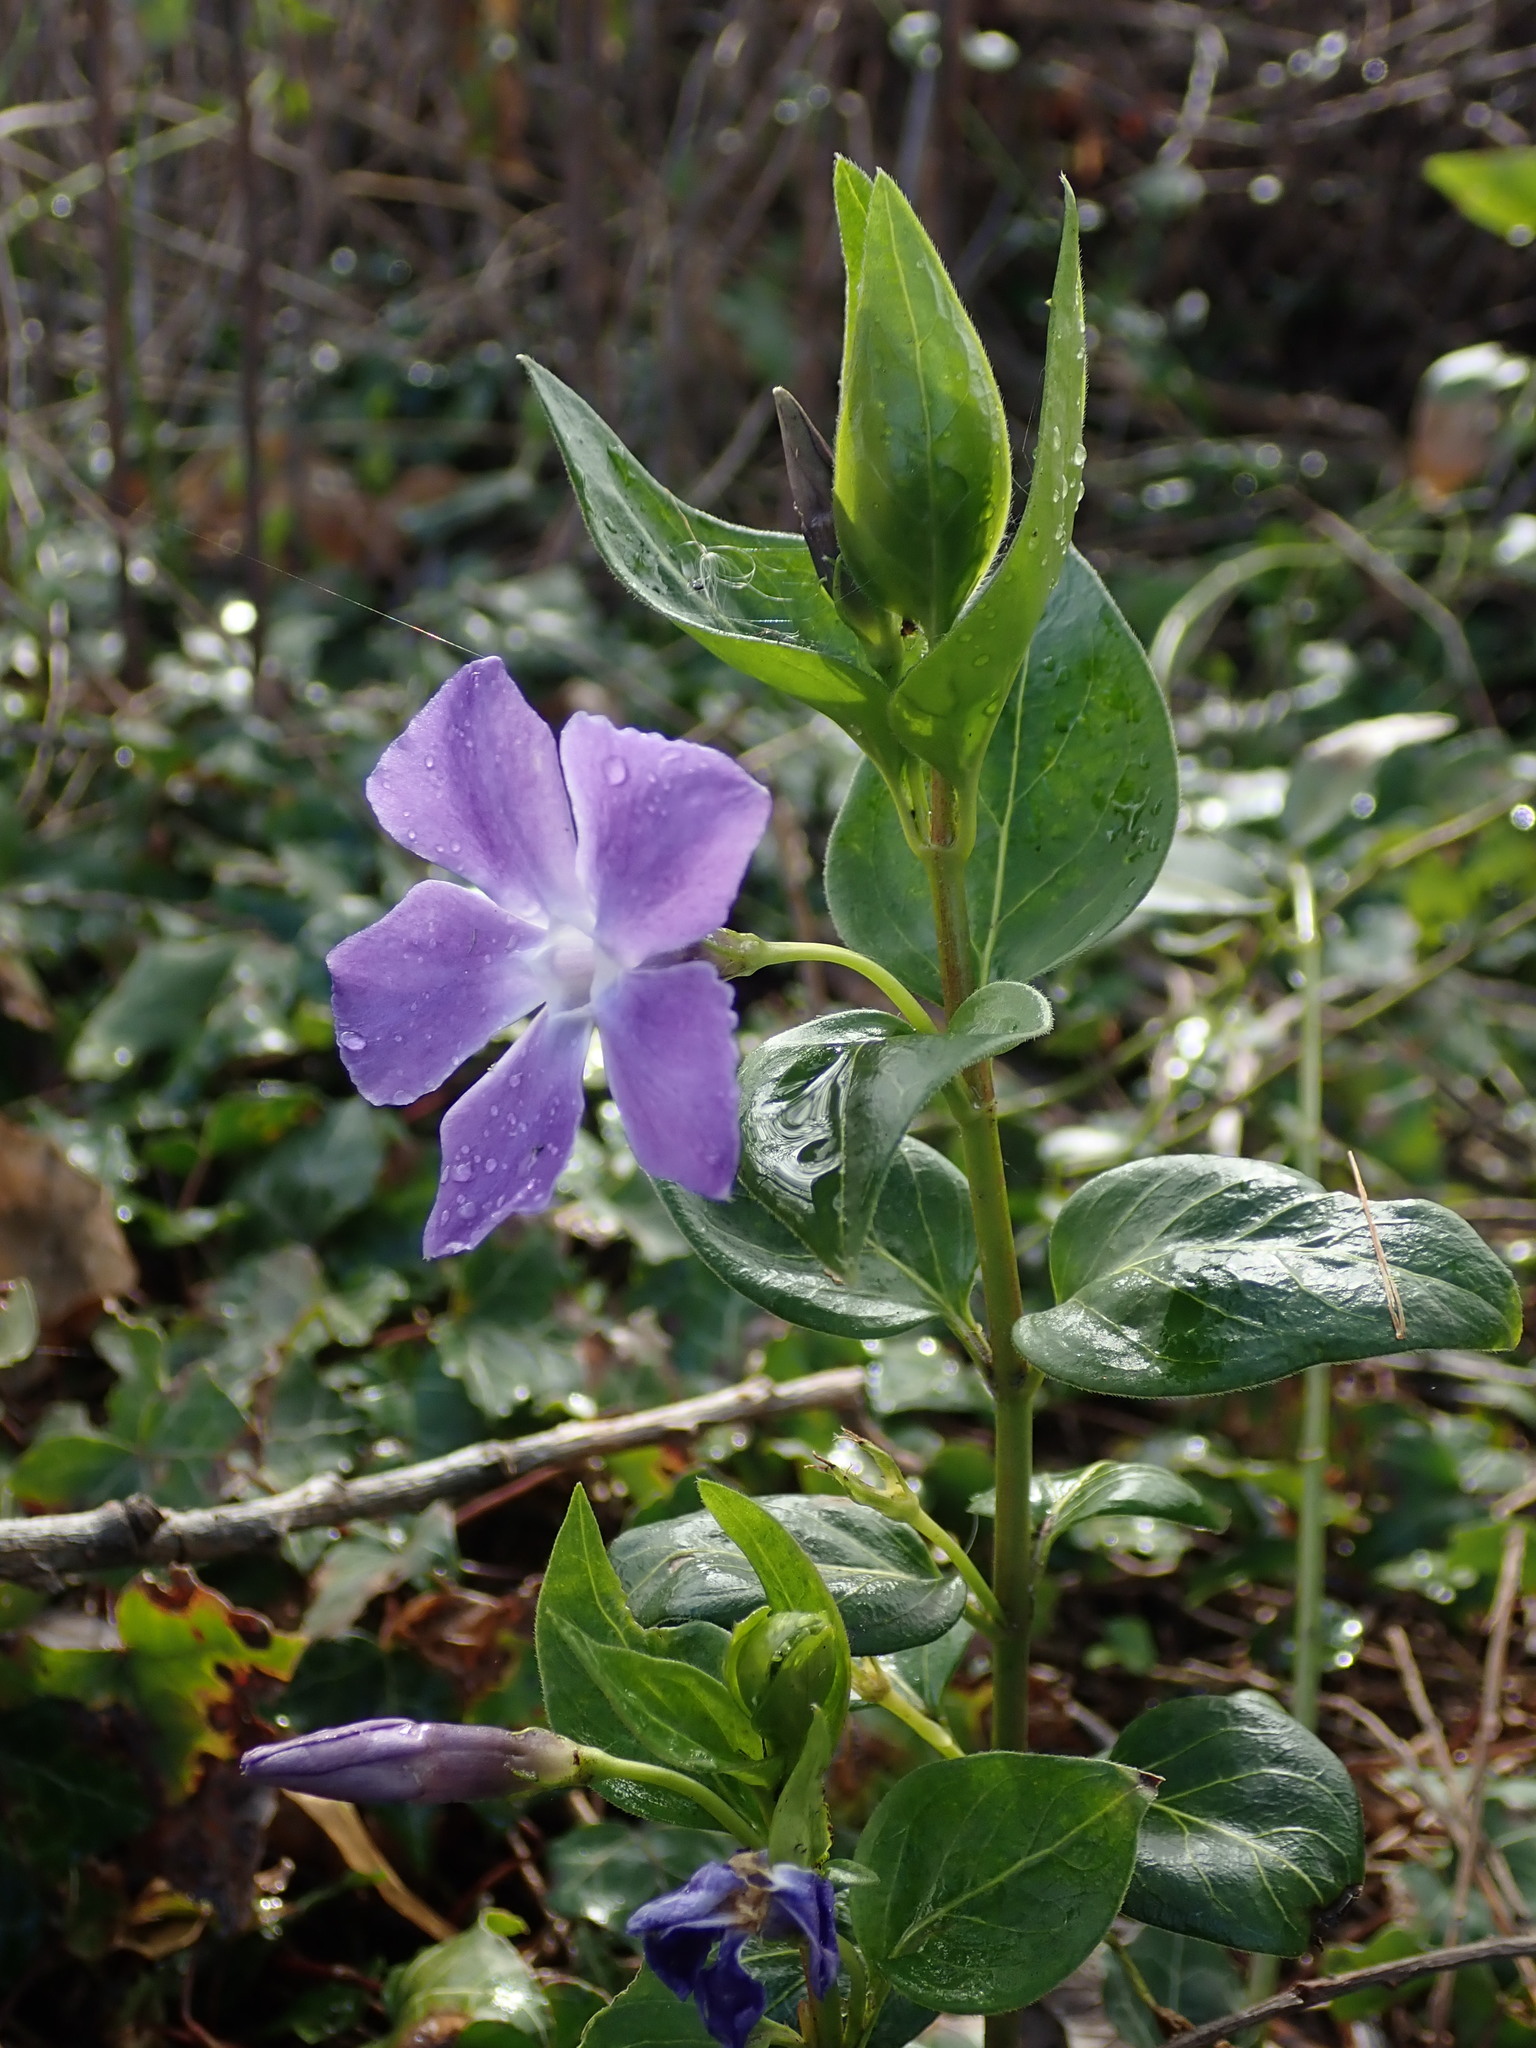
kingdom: Plantae
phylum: Tracheophyta
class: Magnoliopsida
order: Gentianales
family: Apocynaceae
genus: Vinca
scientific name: Vinca major
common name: Greater periwinkle
